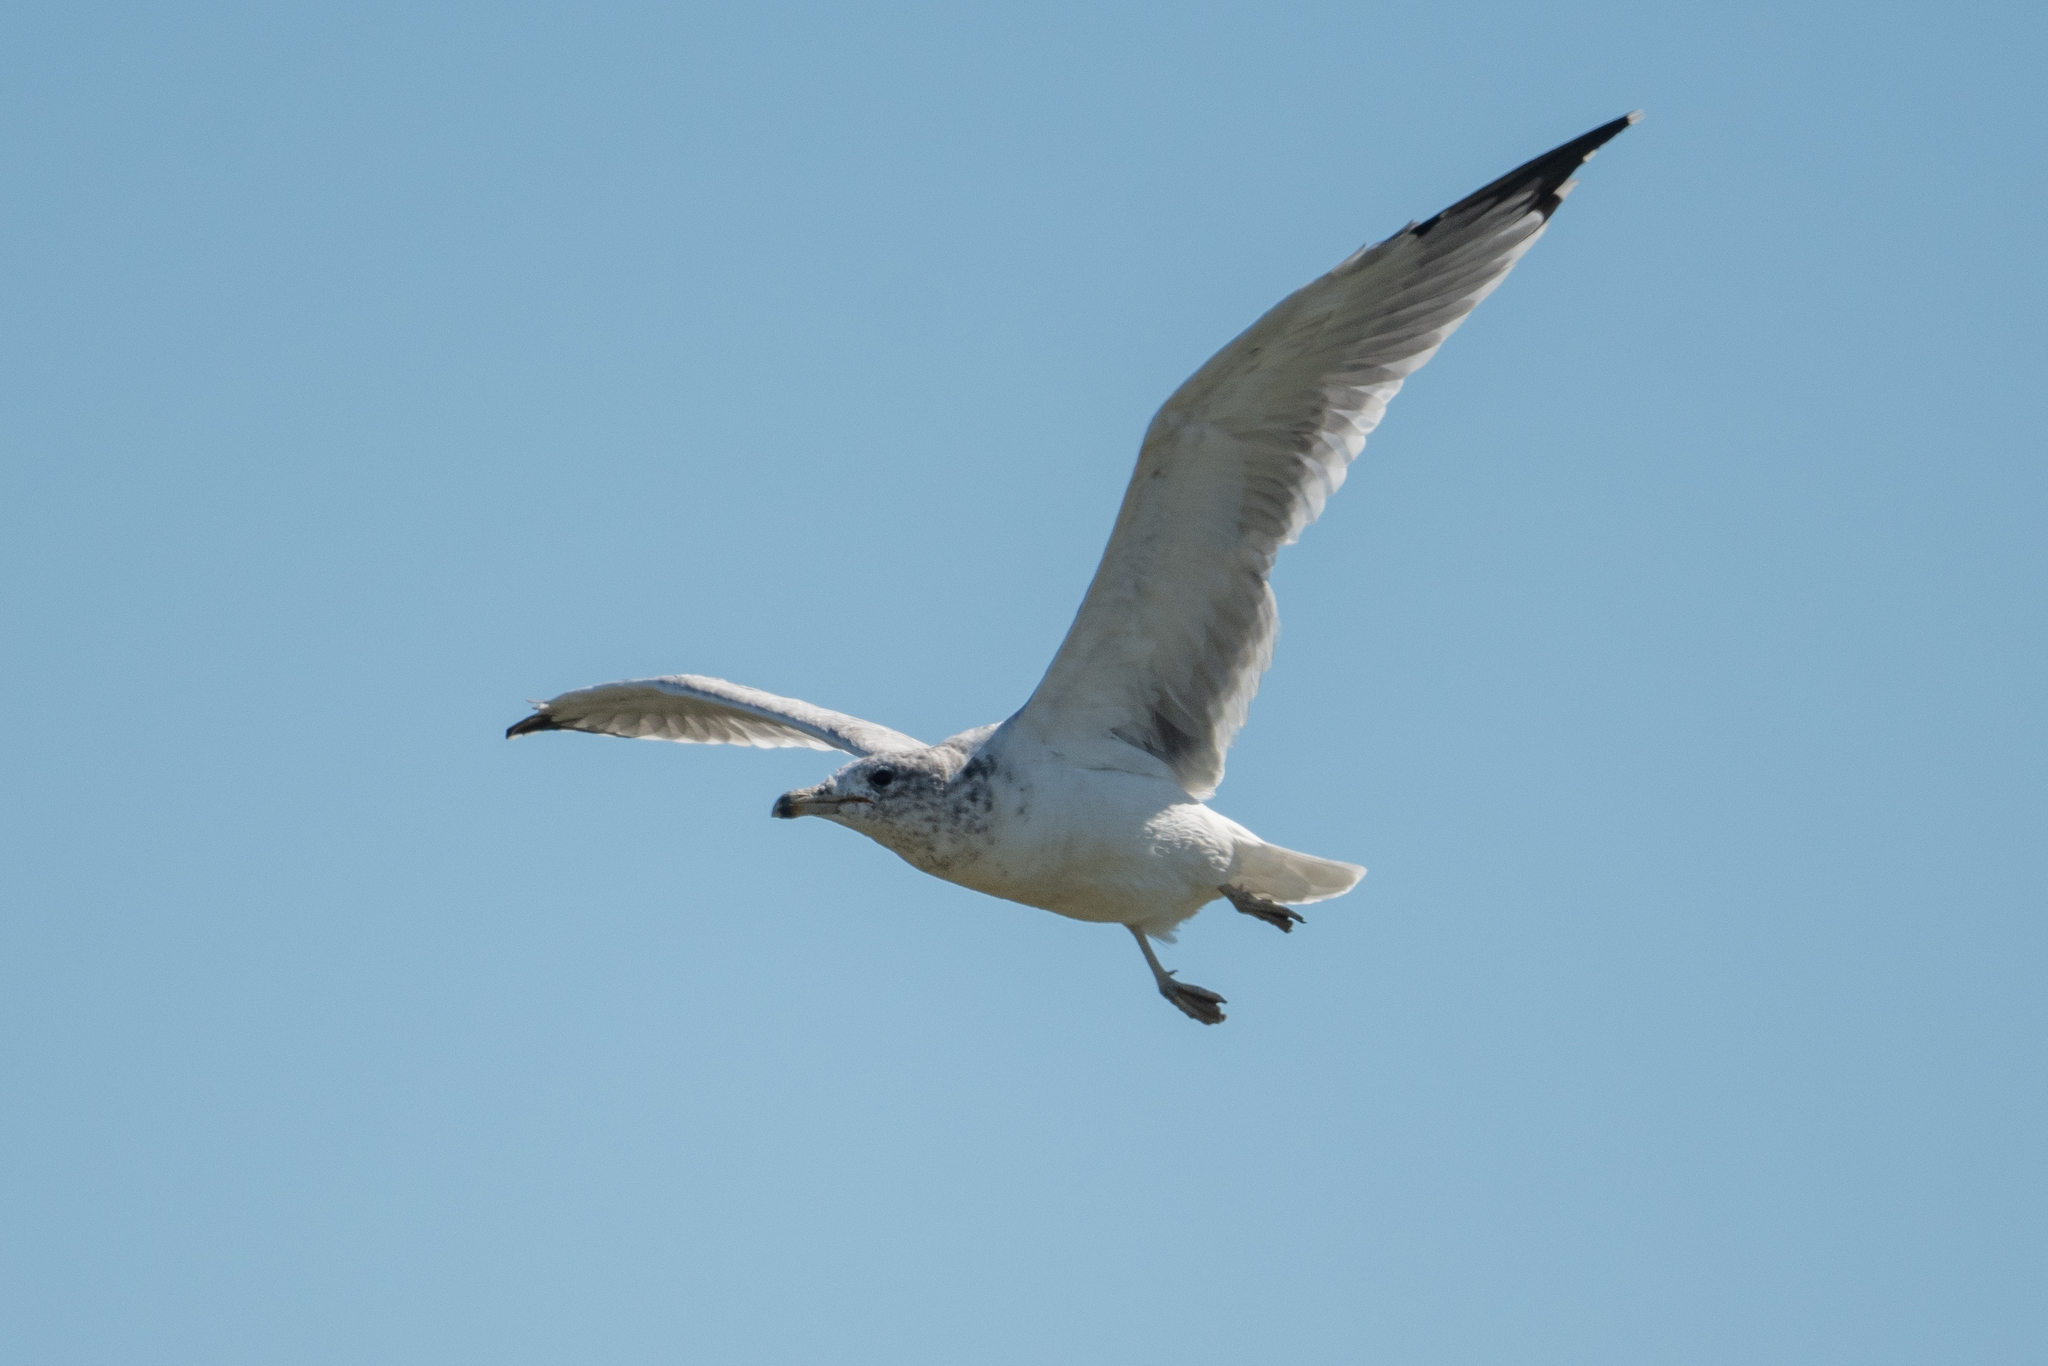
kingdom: Animalia
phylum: Chordata
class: Aves
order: Charadriiformes
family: Laridae
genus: Larus
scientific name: Larus californicus
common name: California gull
